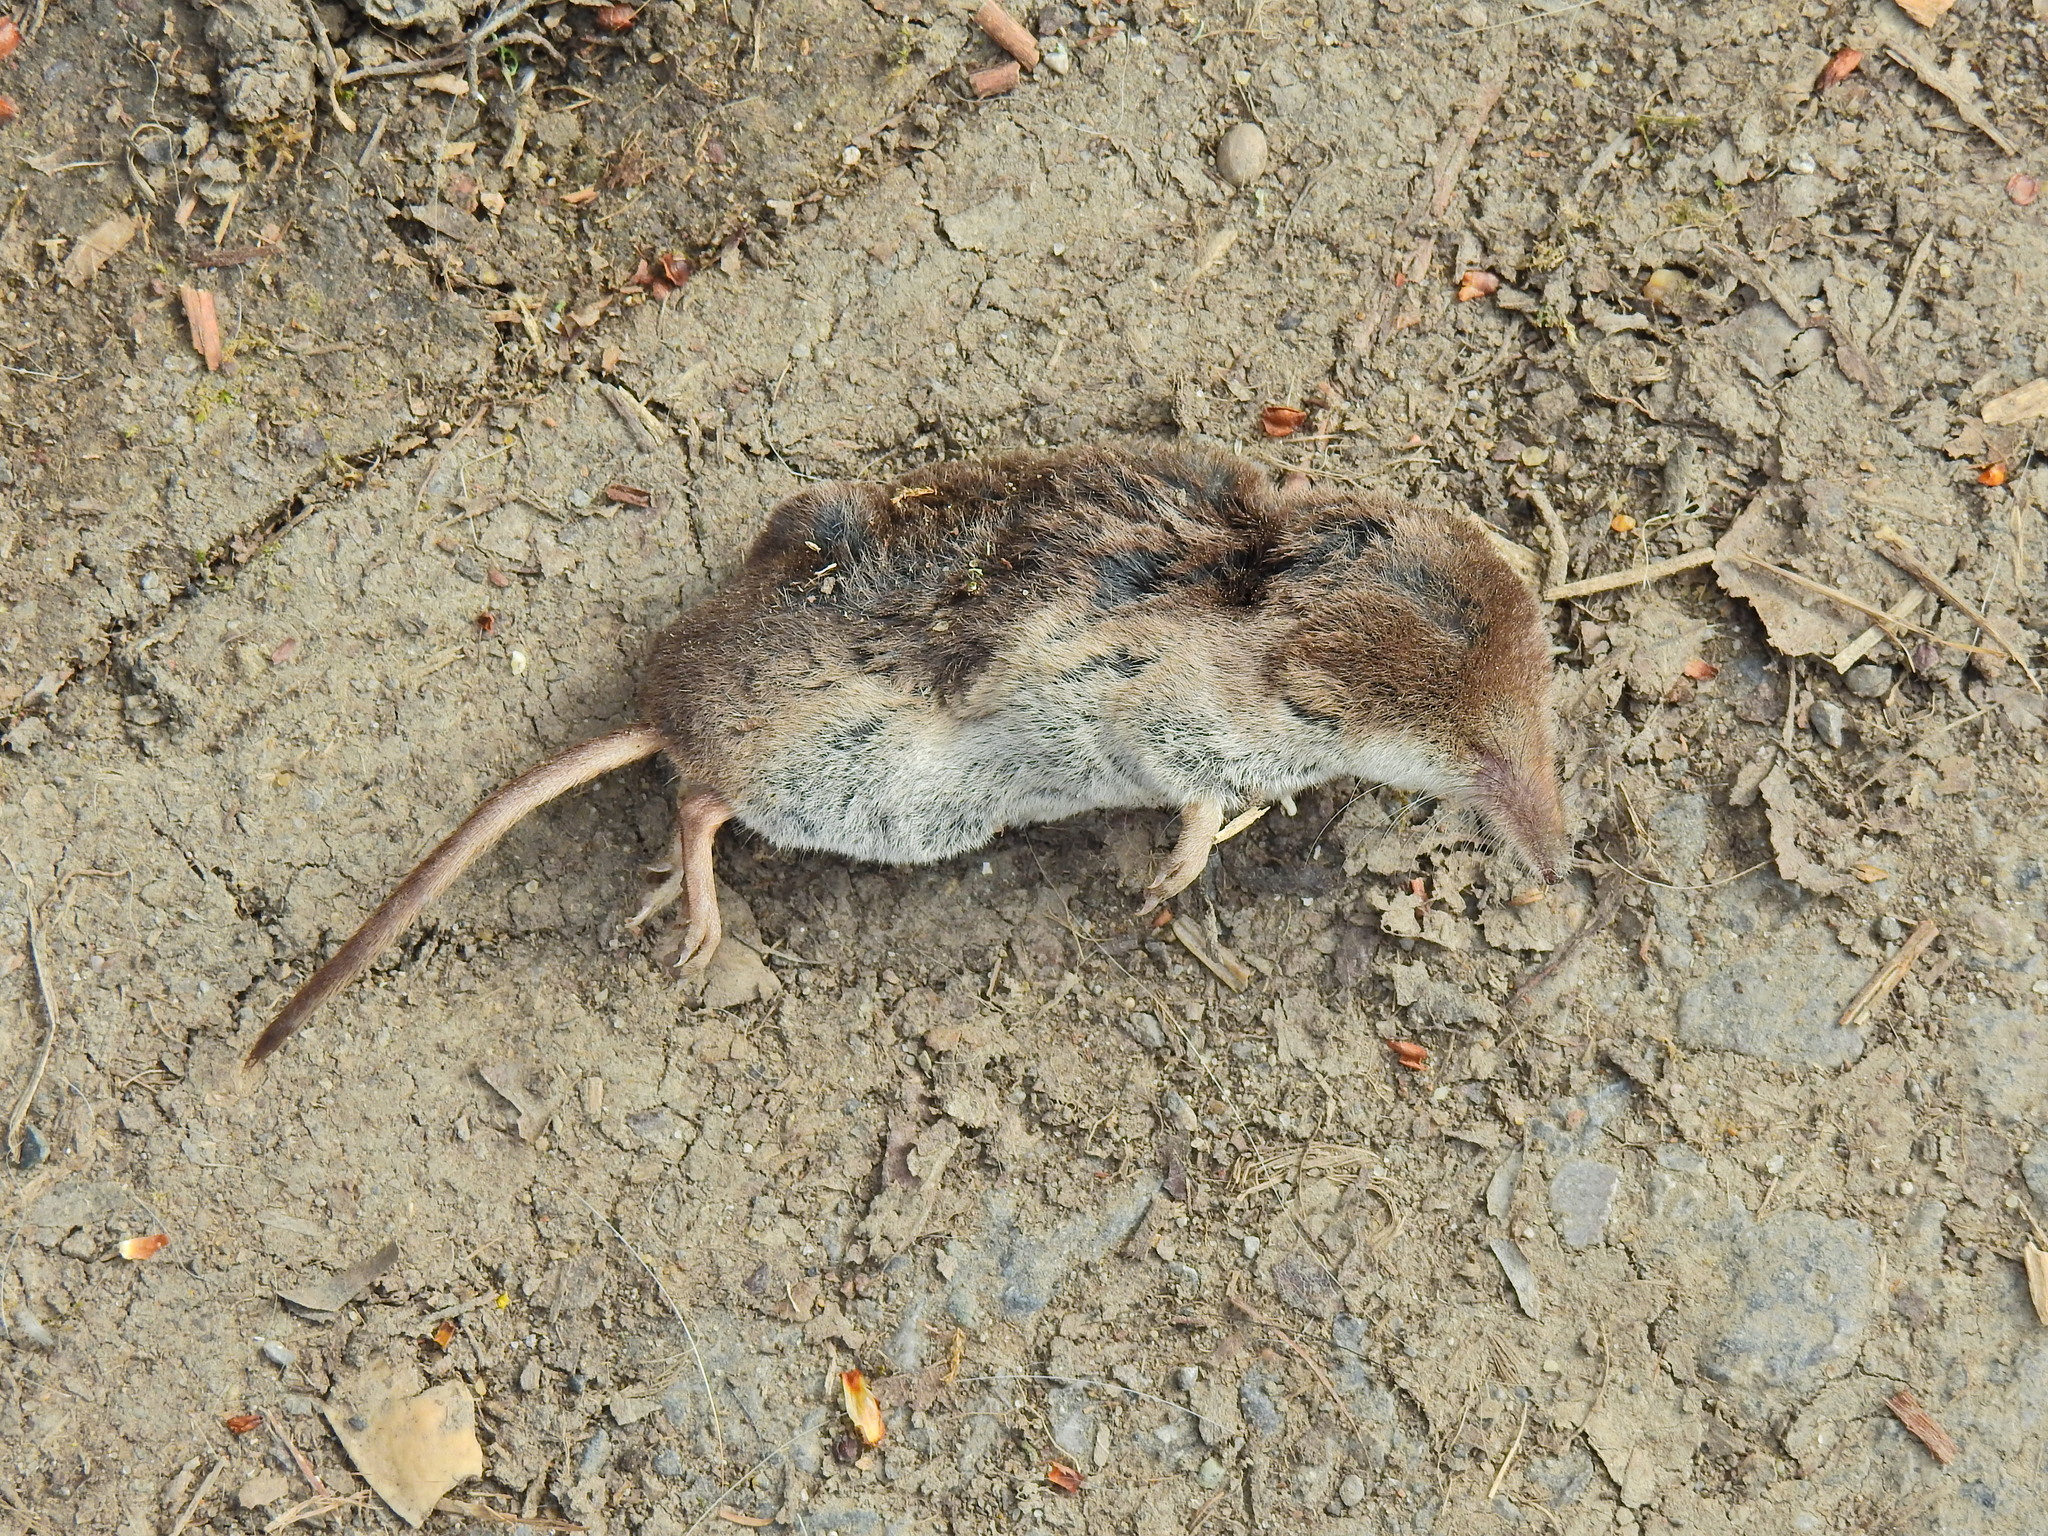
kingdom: Animalia
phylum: Chordata
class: Mammalia
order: Soricomorpha
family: Soricidae
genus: Sorex
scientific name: Sorex araneus
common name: Common shrew
